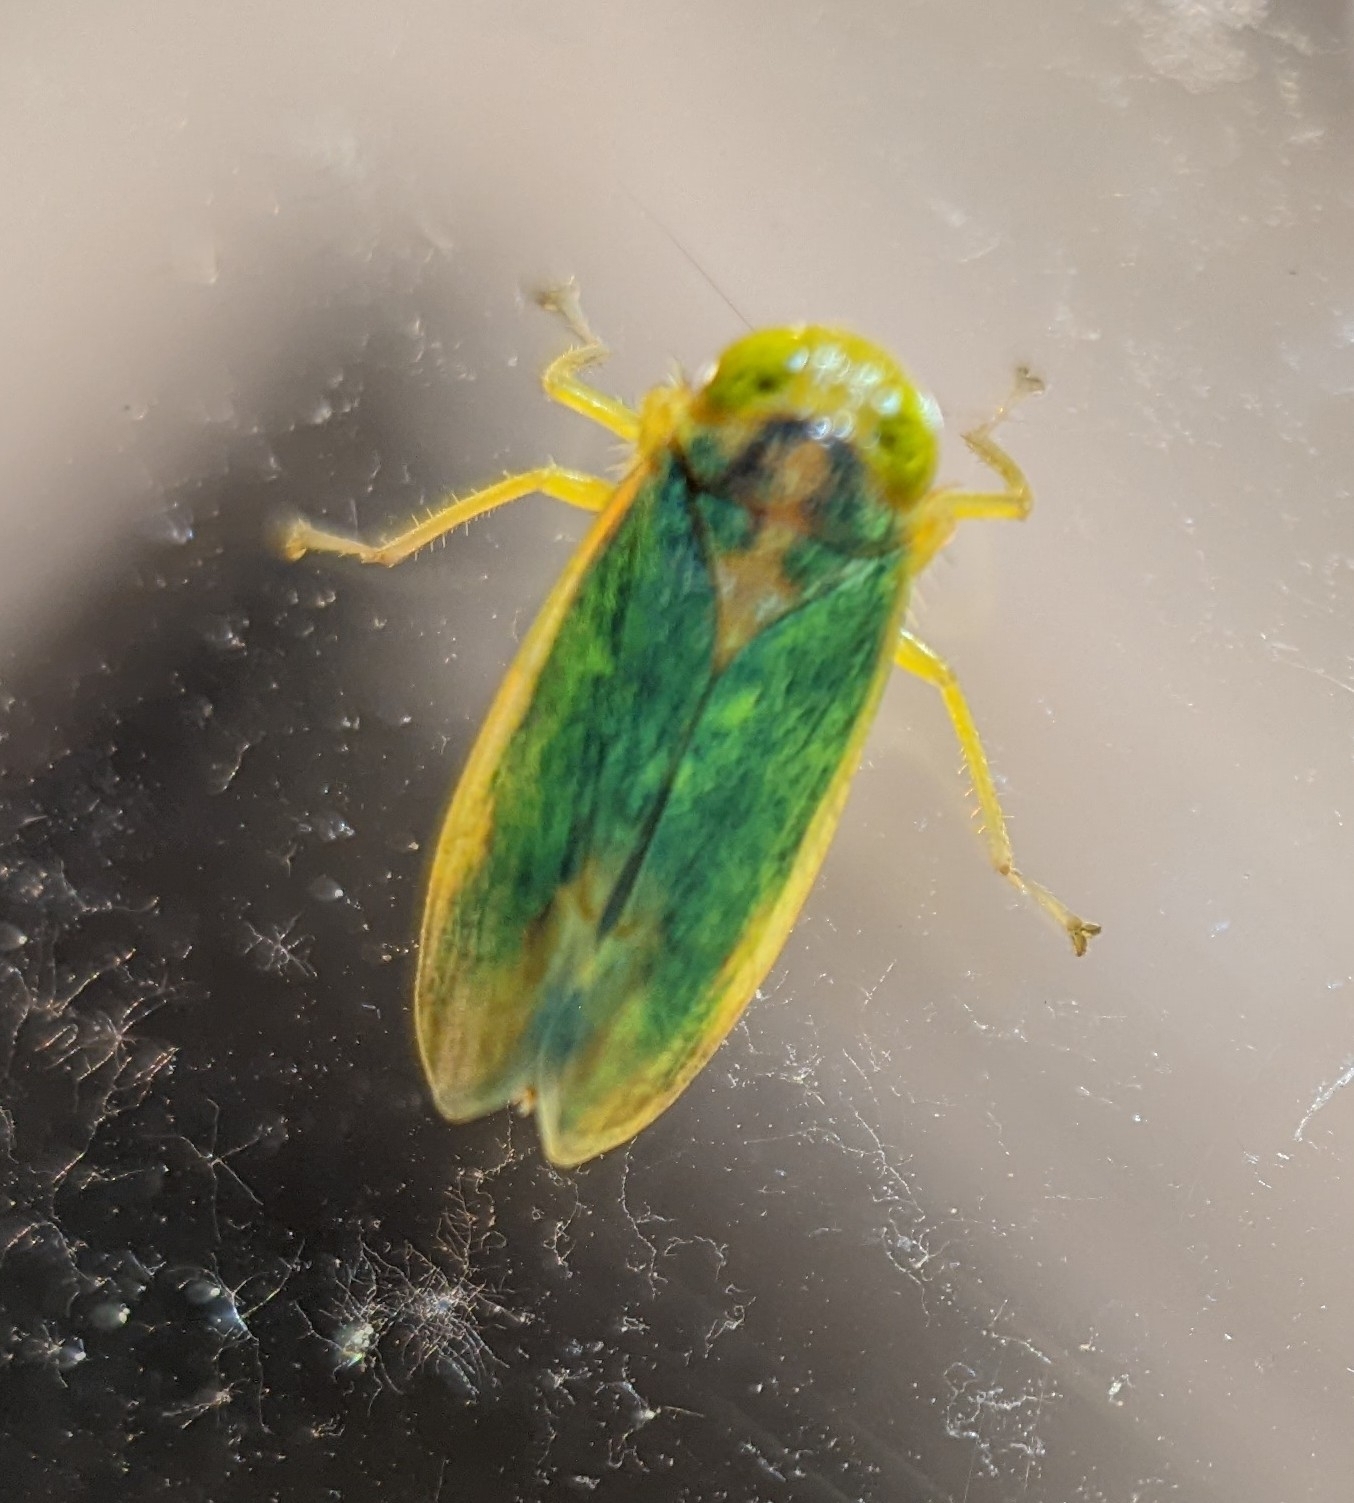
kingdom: Animalia
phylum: Arthropoda
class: Insecta
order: Hemiptera
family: Cicadellidae
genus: Jikradia
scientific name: Jikradia melanotus
